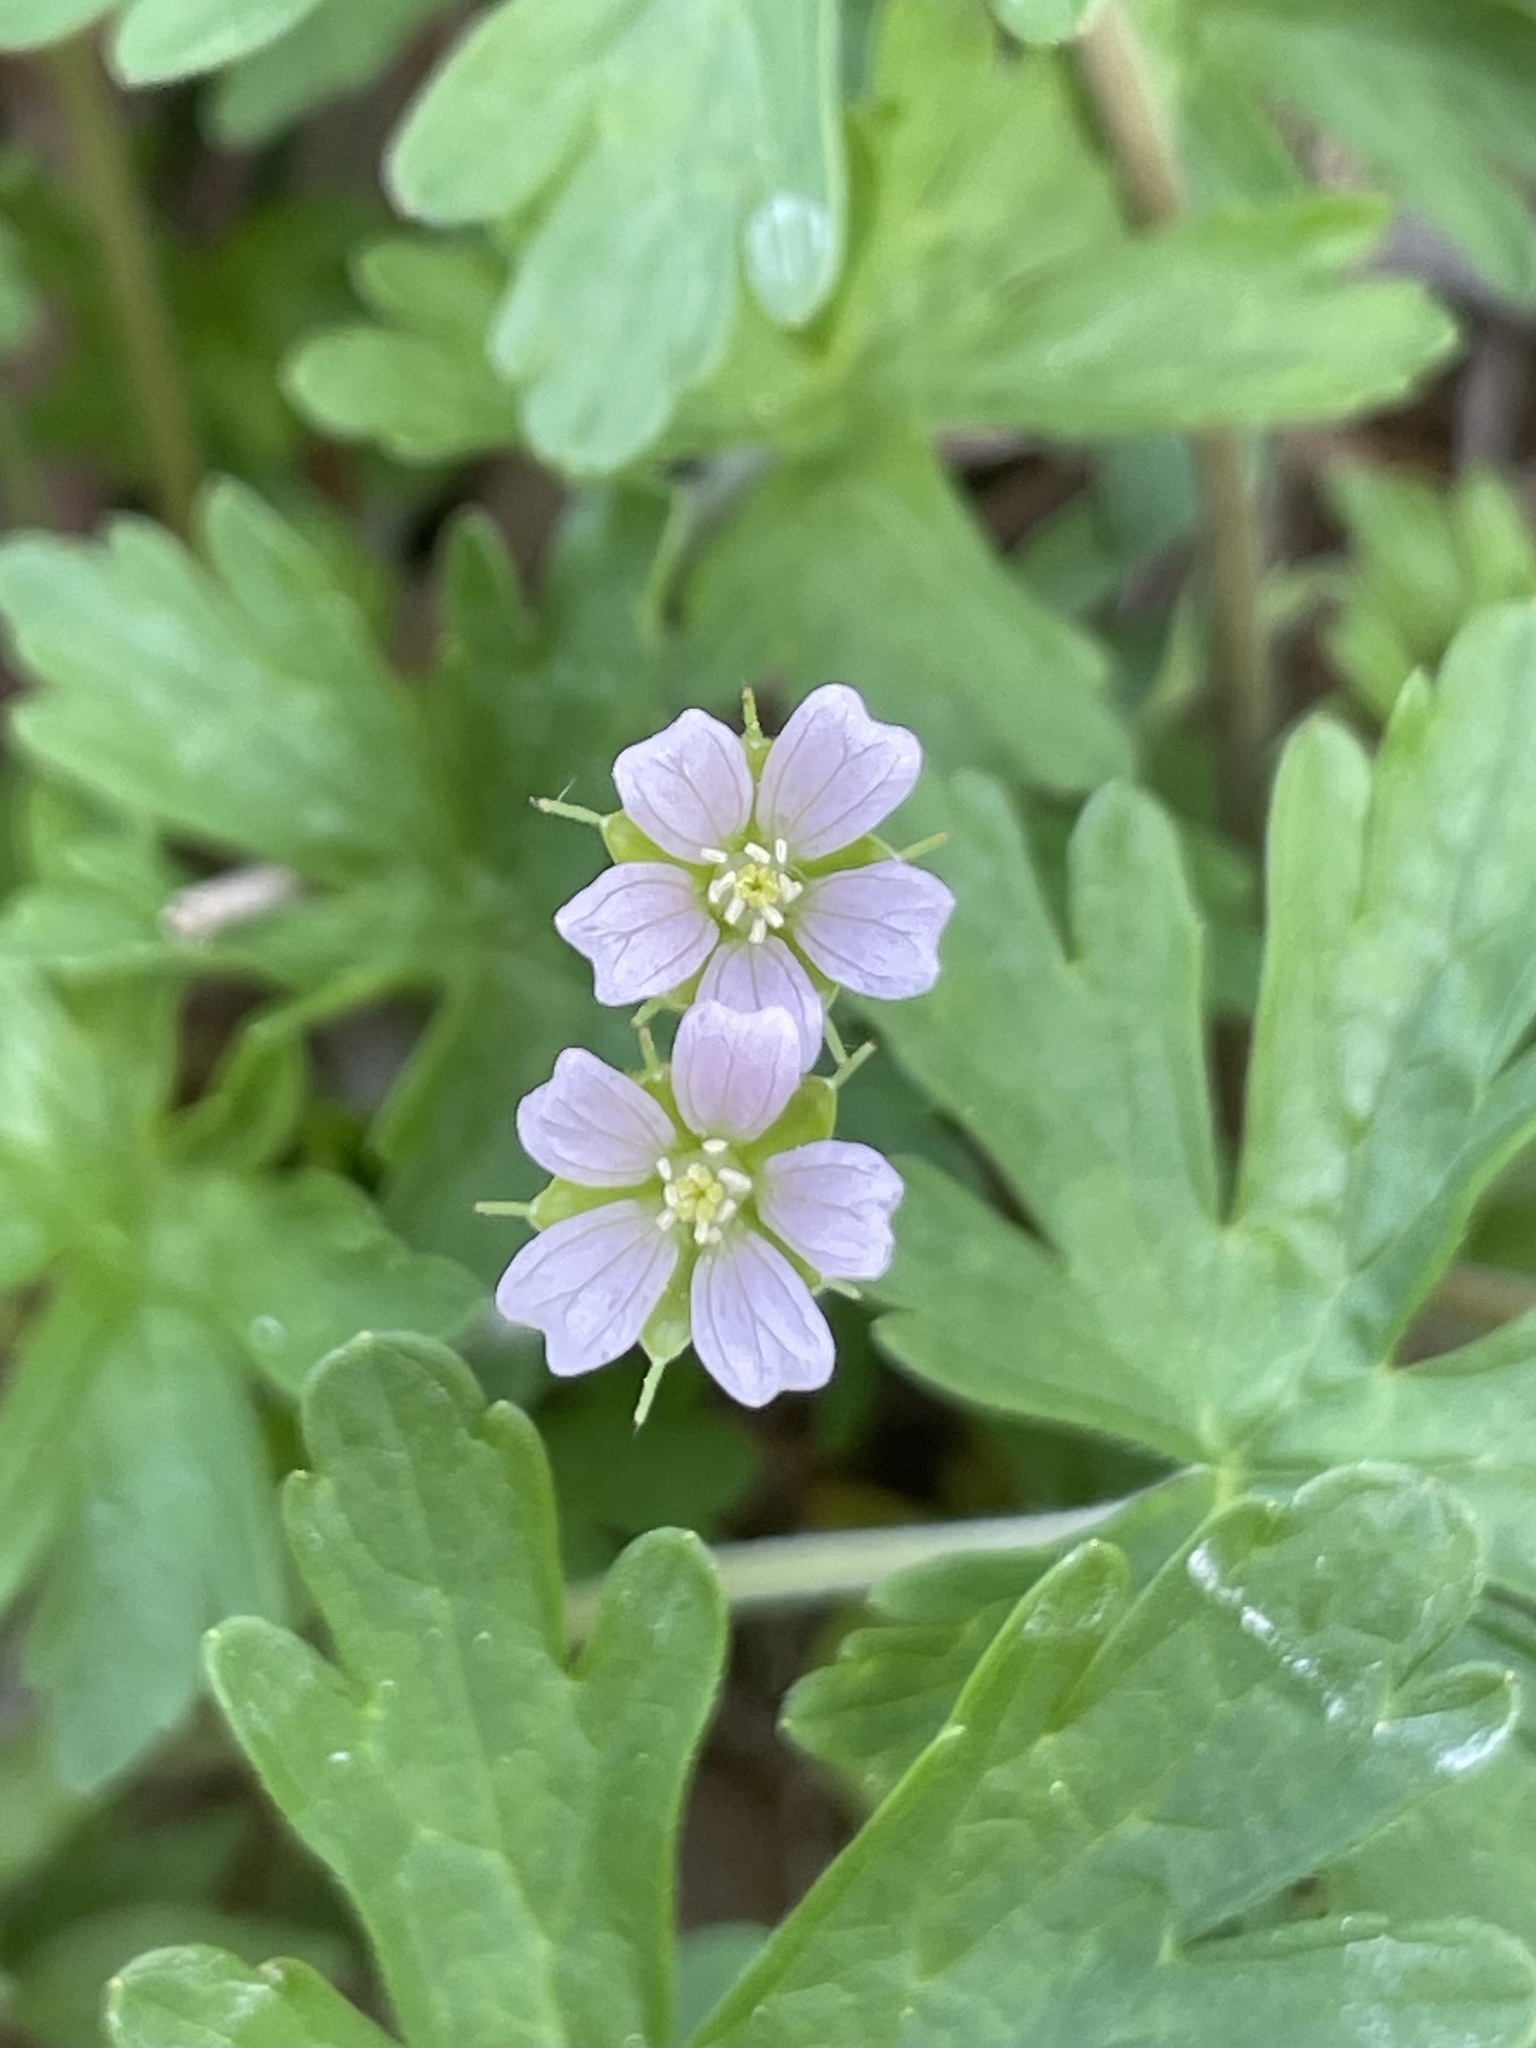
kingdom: Plantae
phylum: Tracheophyta
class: Magnoliopsida
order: Geraniales
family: Geraniaceae
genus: Geranium
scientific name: Geranium carolinianum
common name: Carolina crane's-bill
